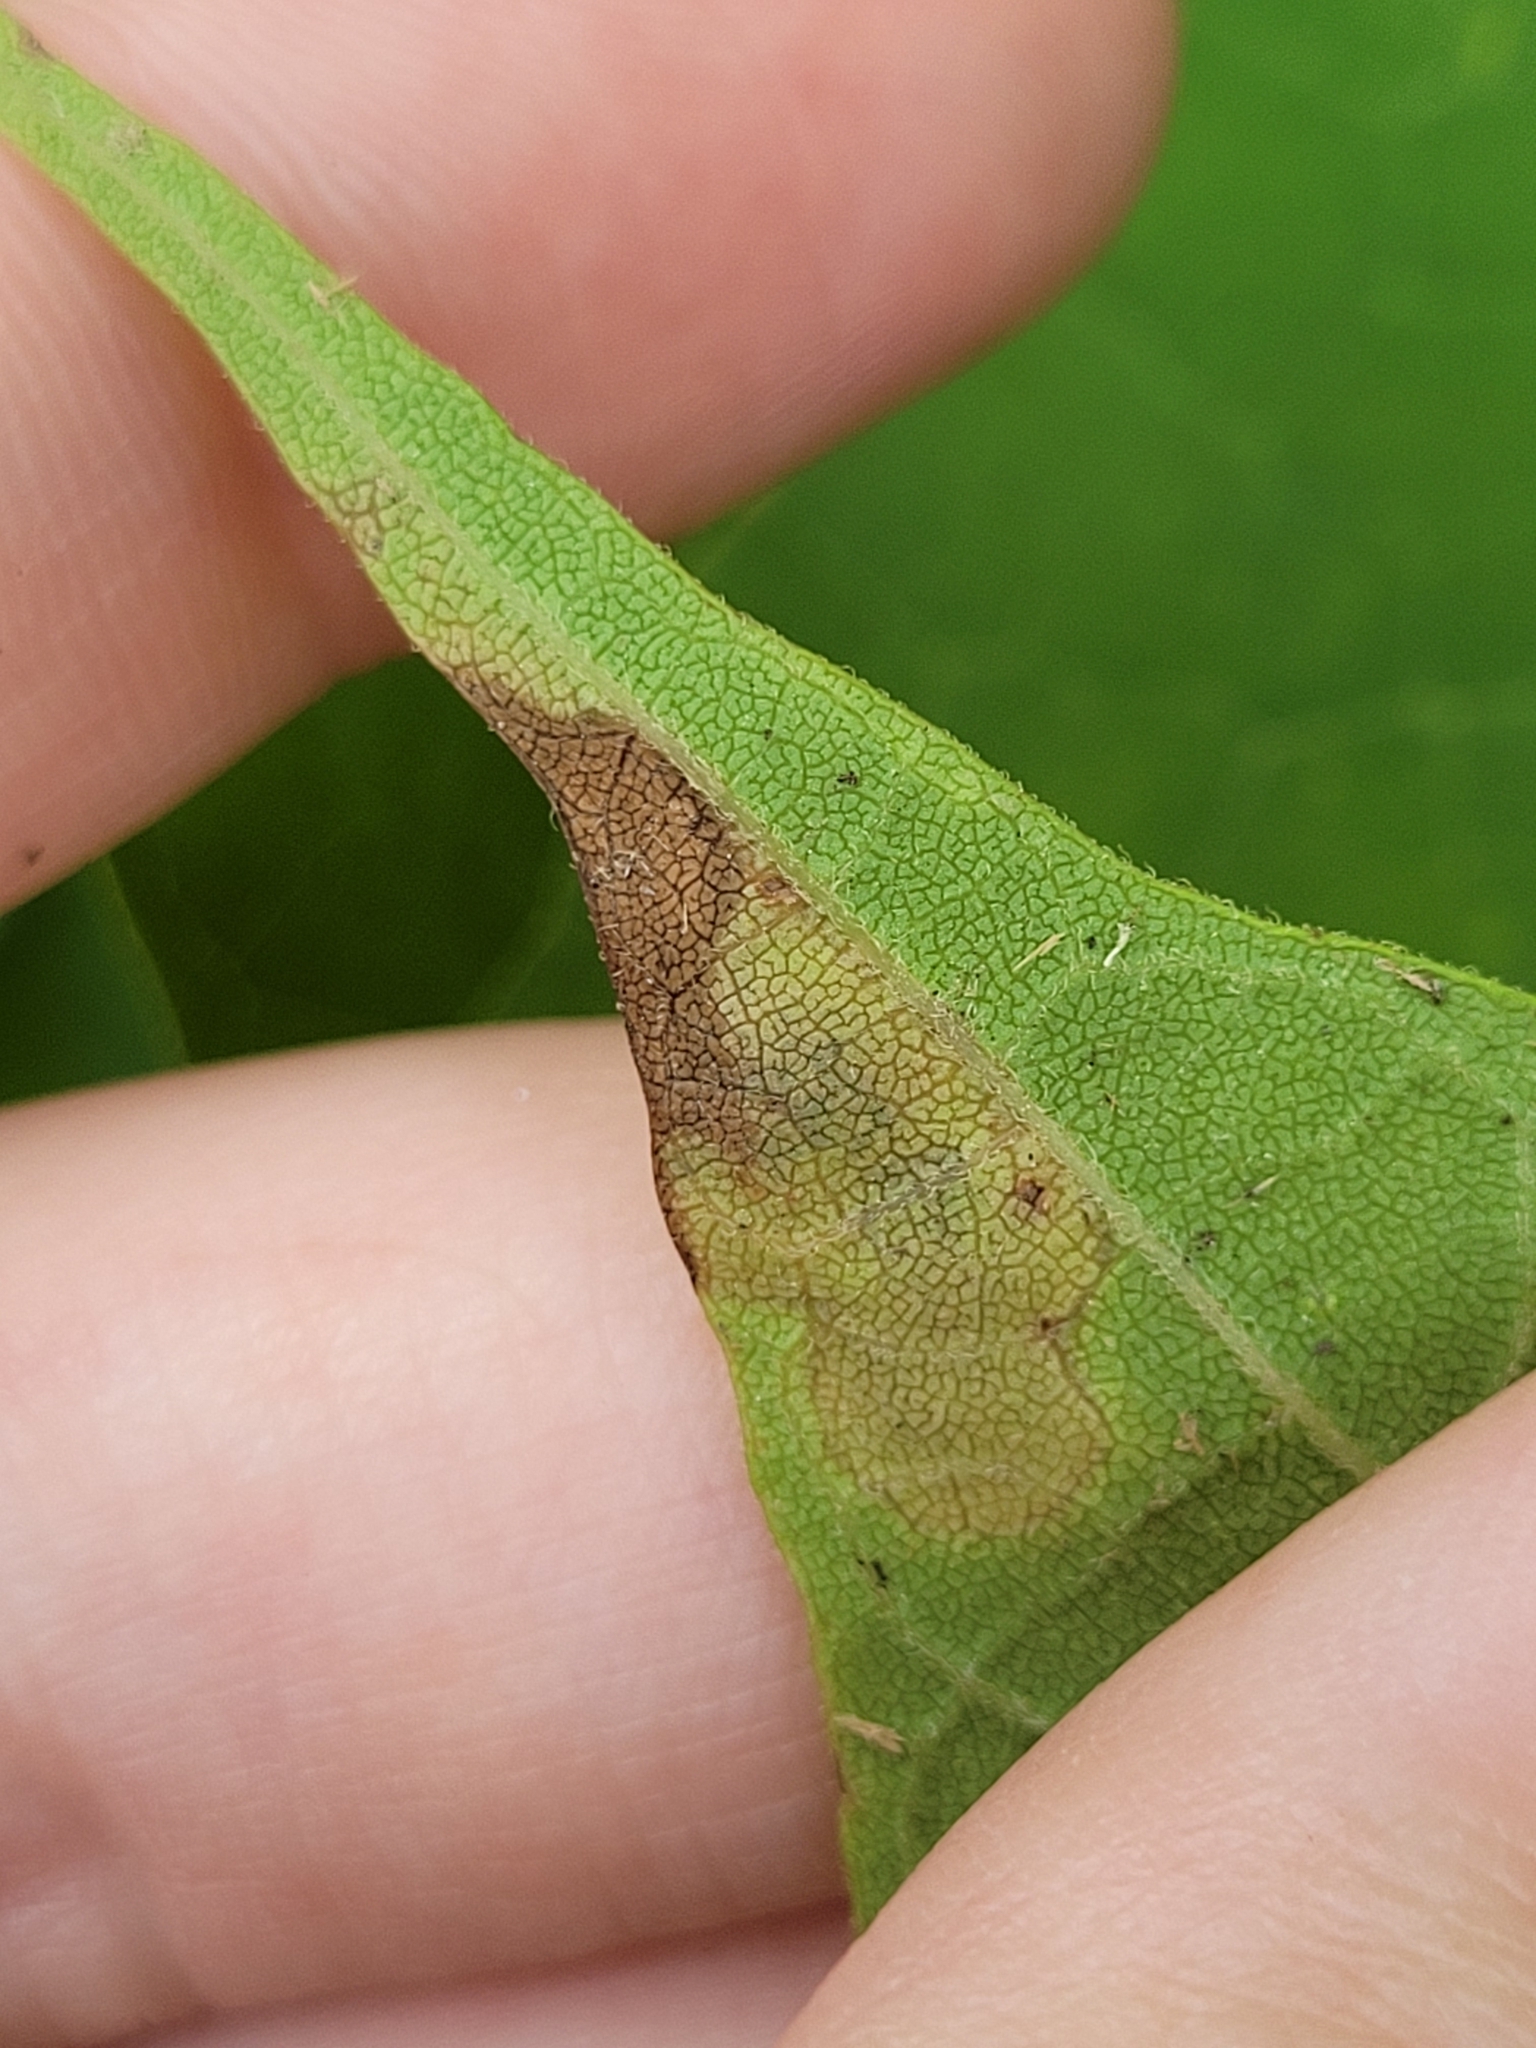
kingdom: Animalia
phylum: Arthropoda
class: Insecta
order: Diptera
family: Agromyzidae
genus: Amauromyza
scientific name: Amauromyza pleuralis
